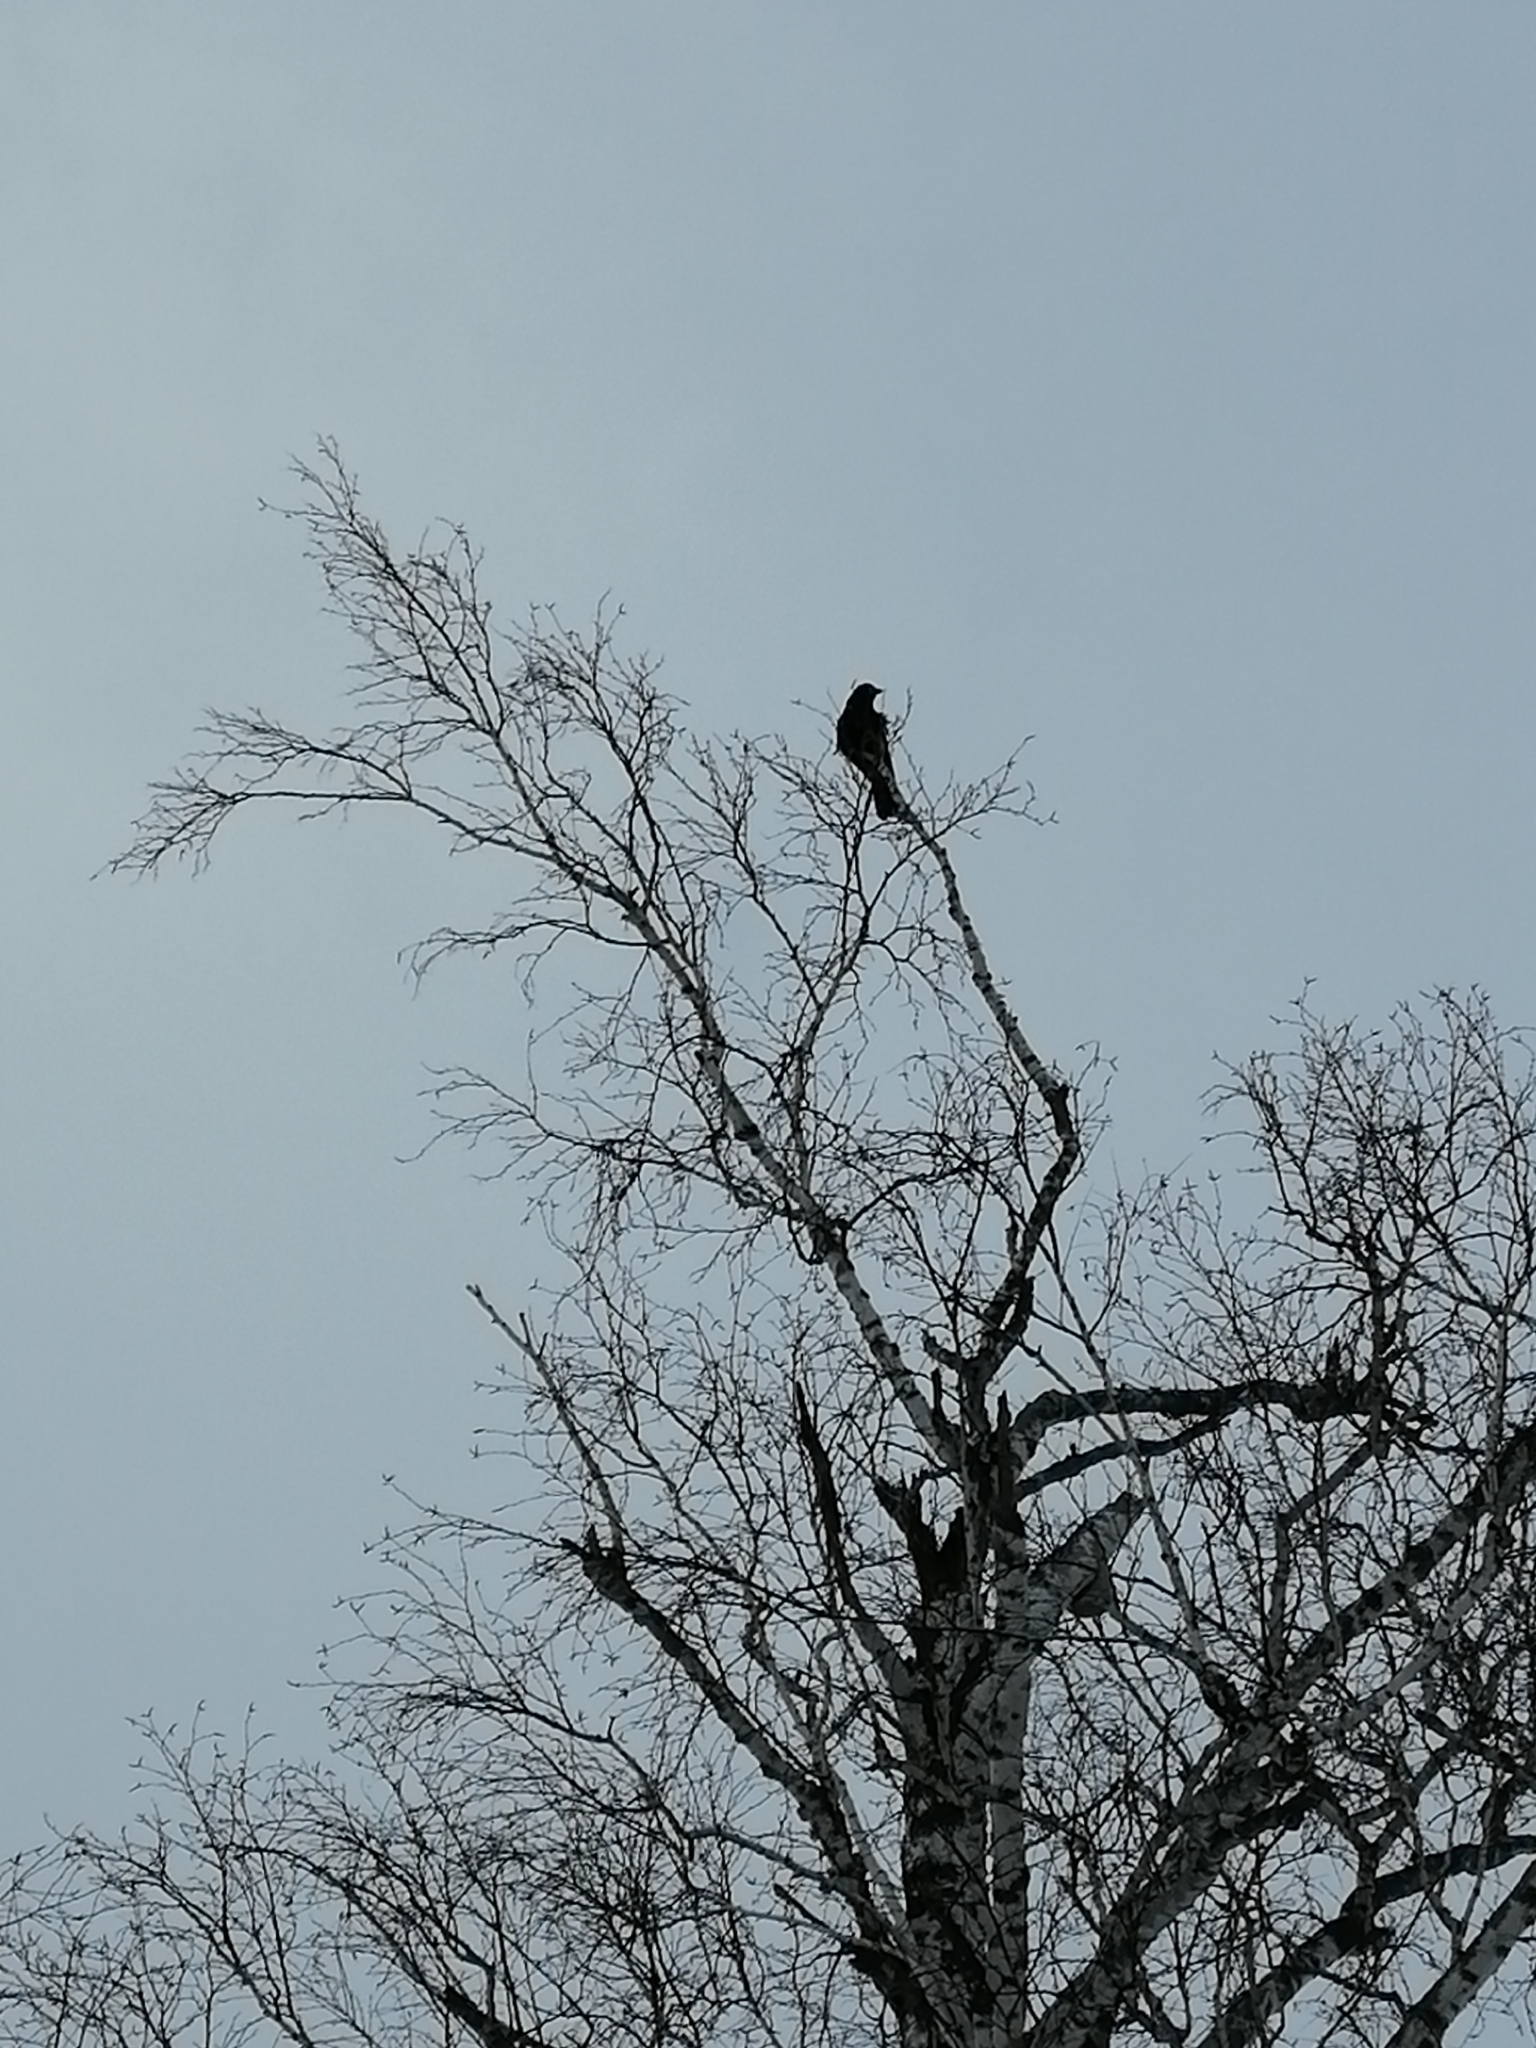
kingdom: Animalia
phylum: Chordata
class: Aves
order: Passeriformes
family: Corvidae
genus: Corvus
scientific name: Corvus corone
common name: Carrion crow
